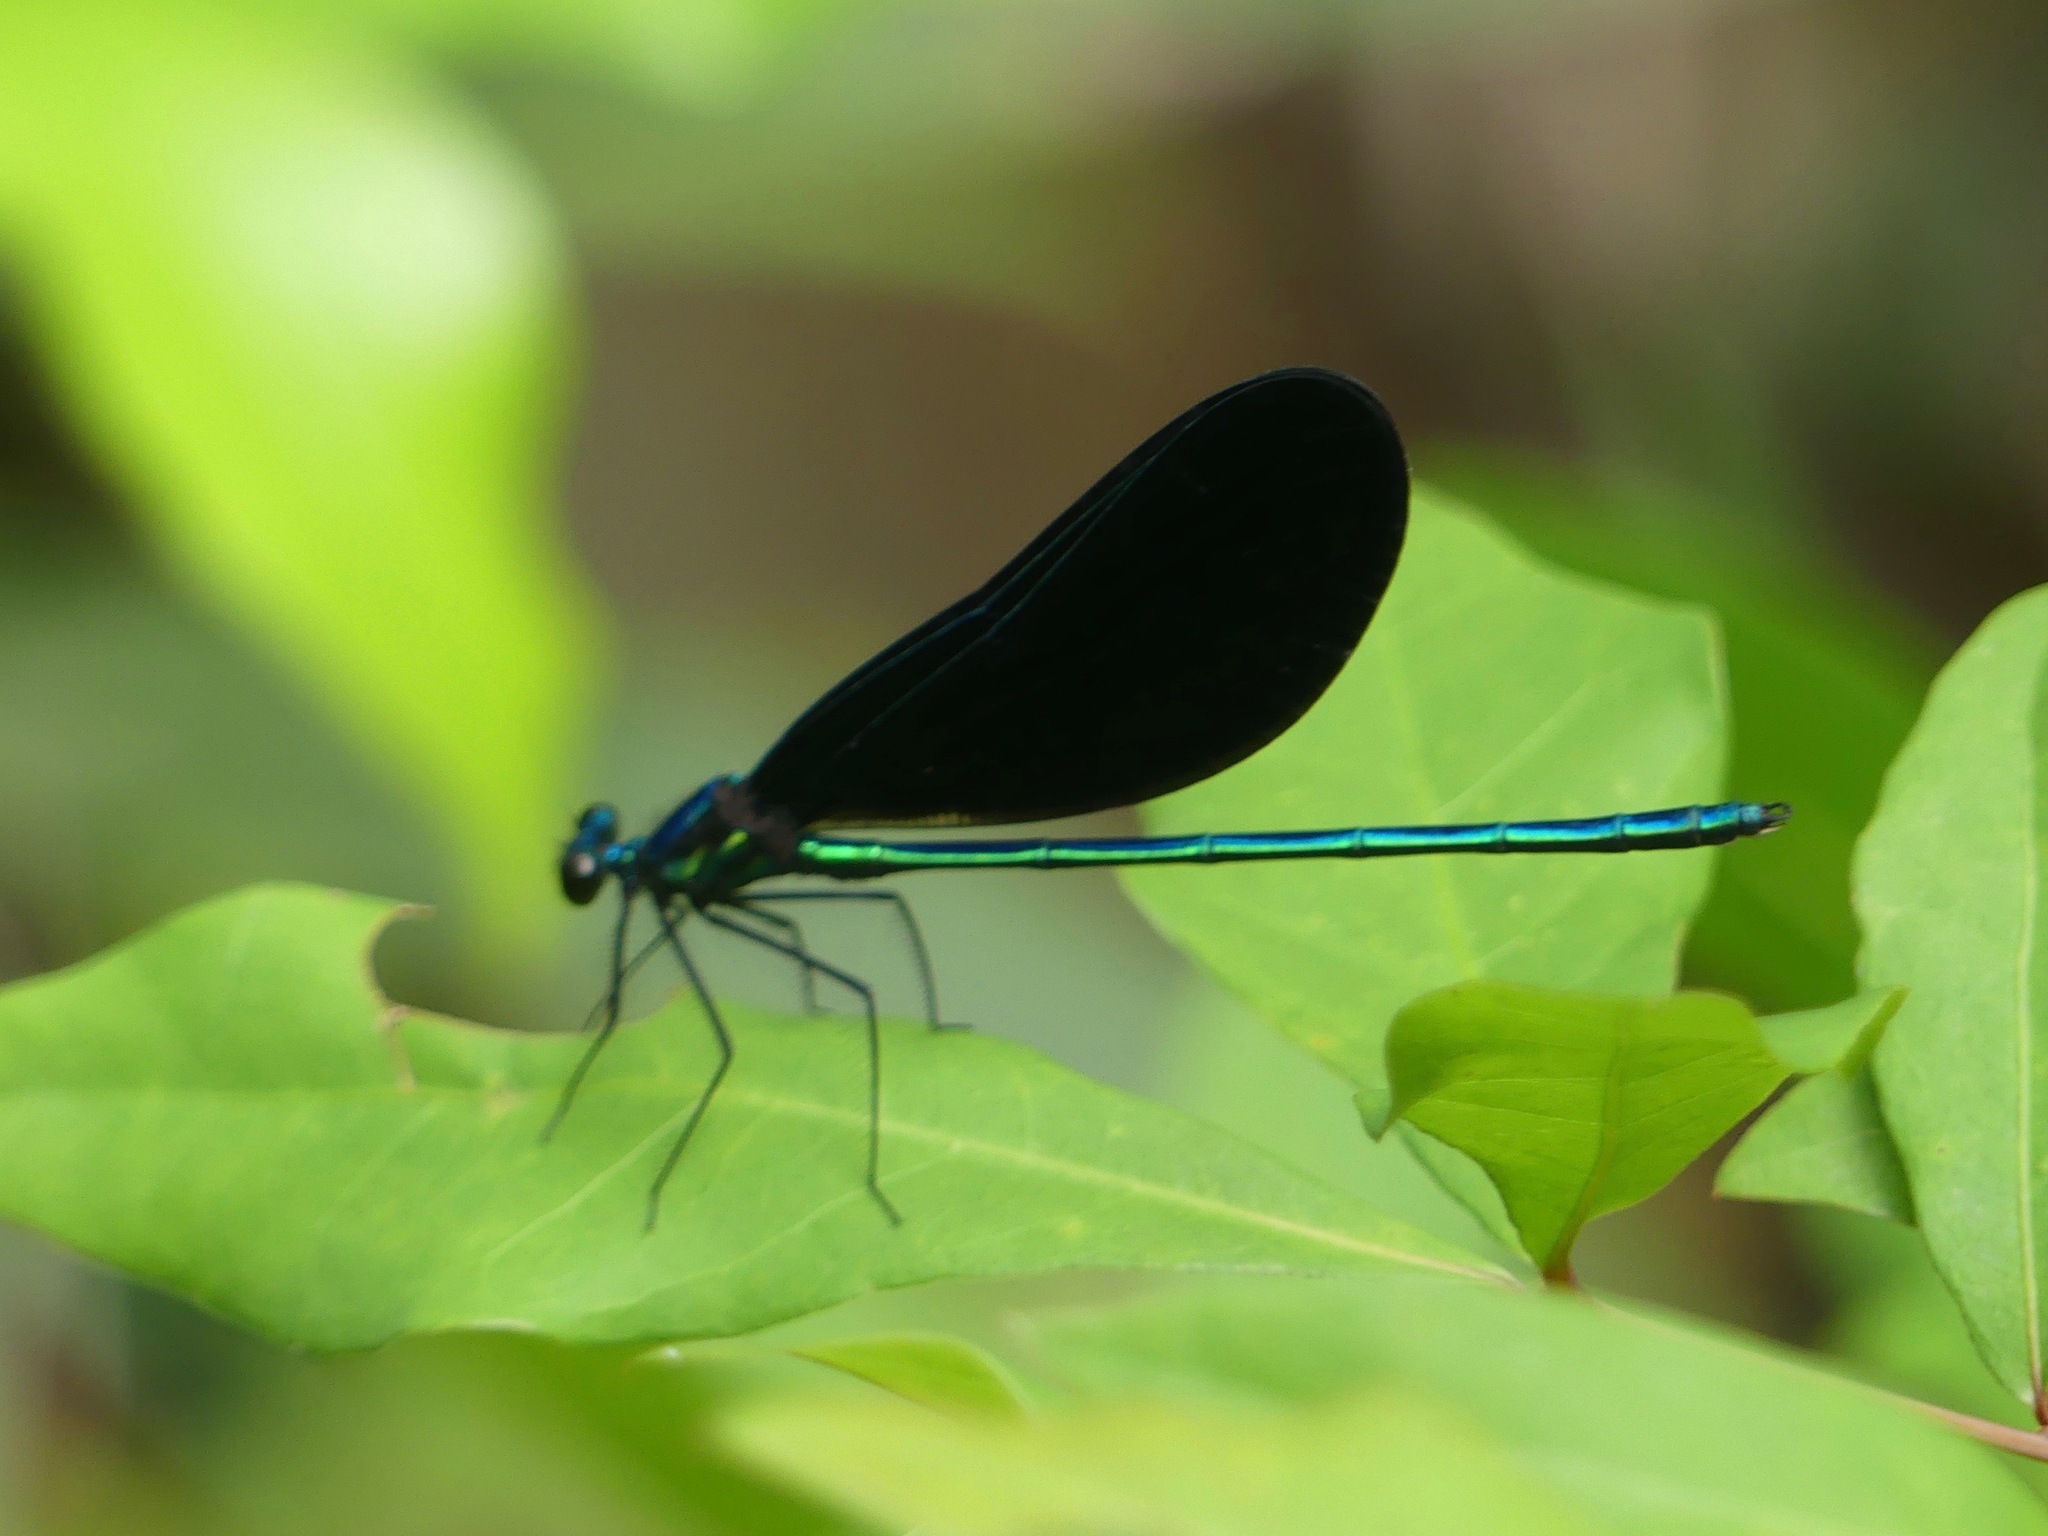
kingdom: Animalia
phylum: Arthropoda
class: Insecta
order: Odonata
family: Calopterygidae
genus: Calopteryx
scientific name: Calopteryx maculata
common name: Ebony jewelwing
